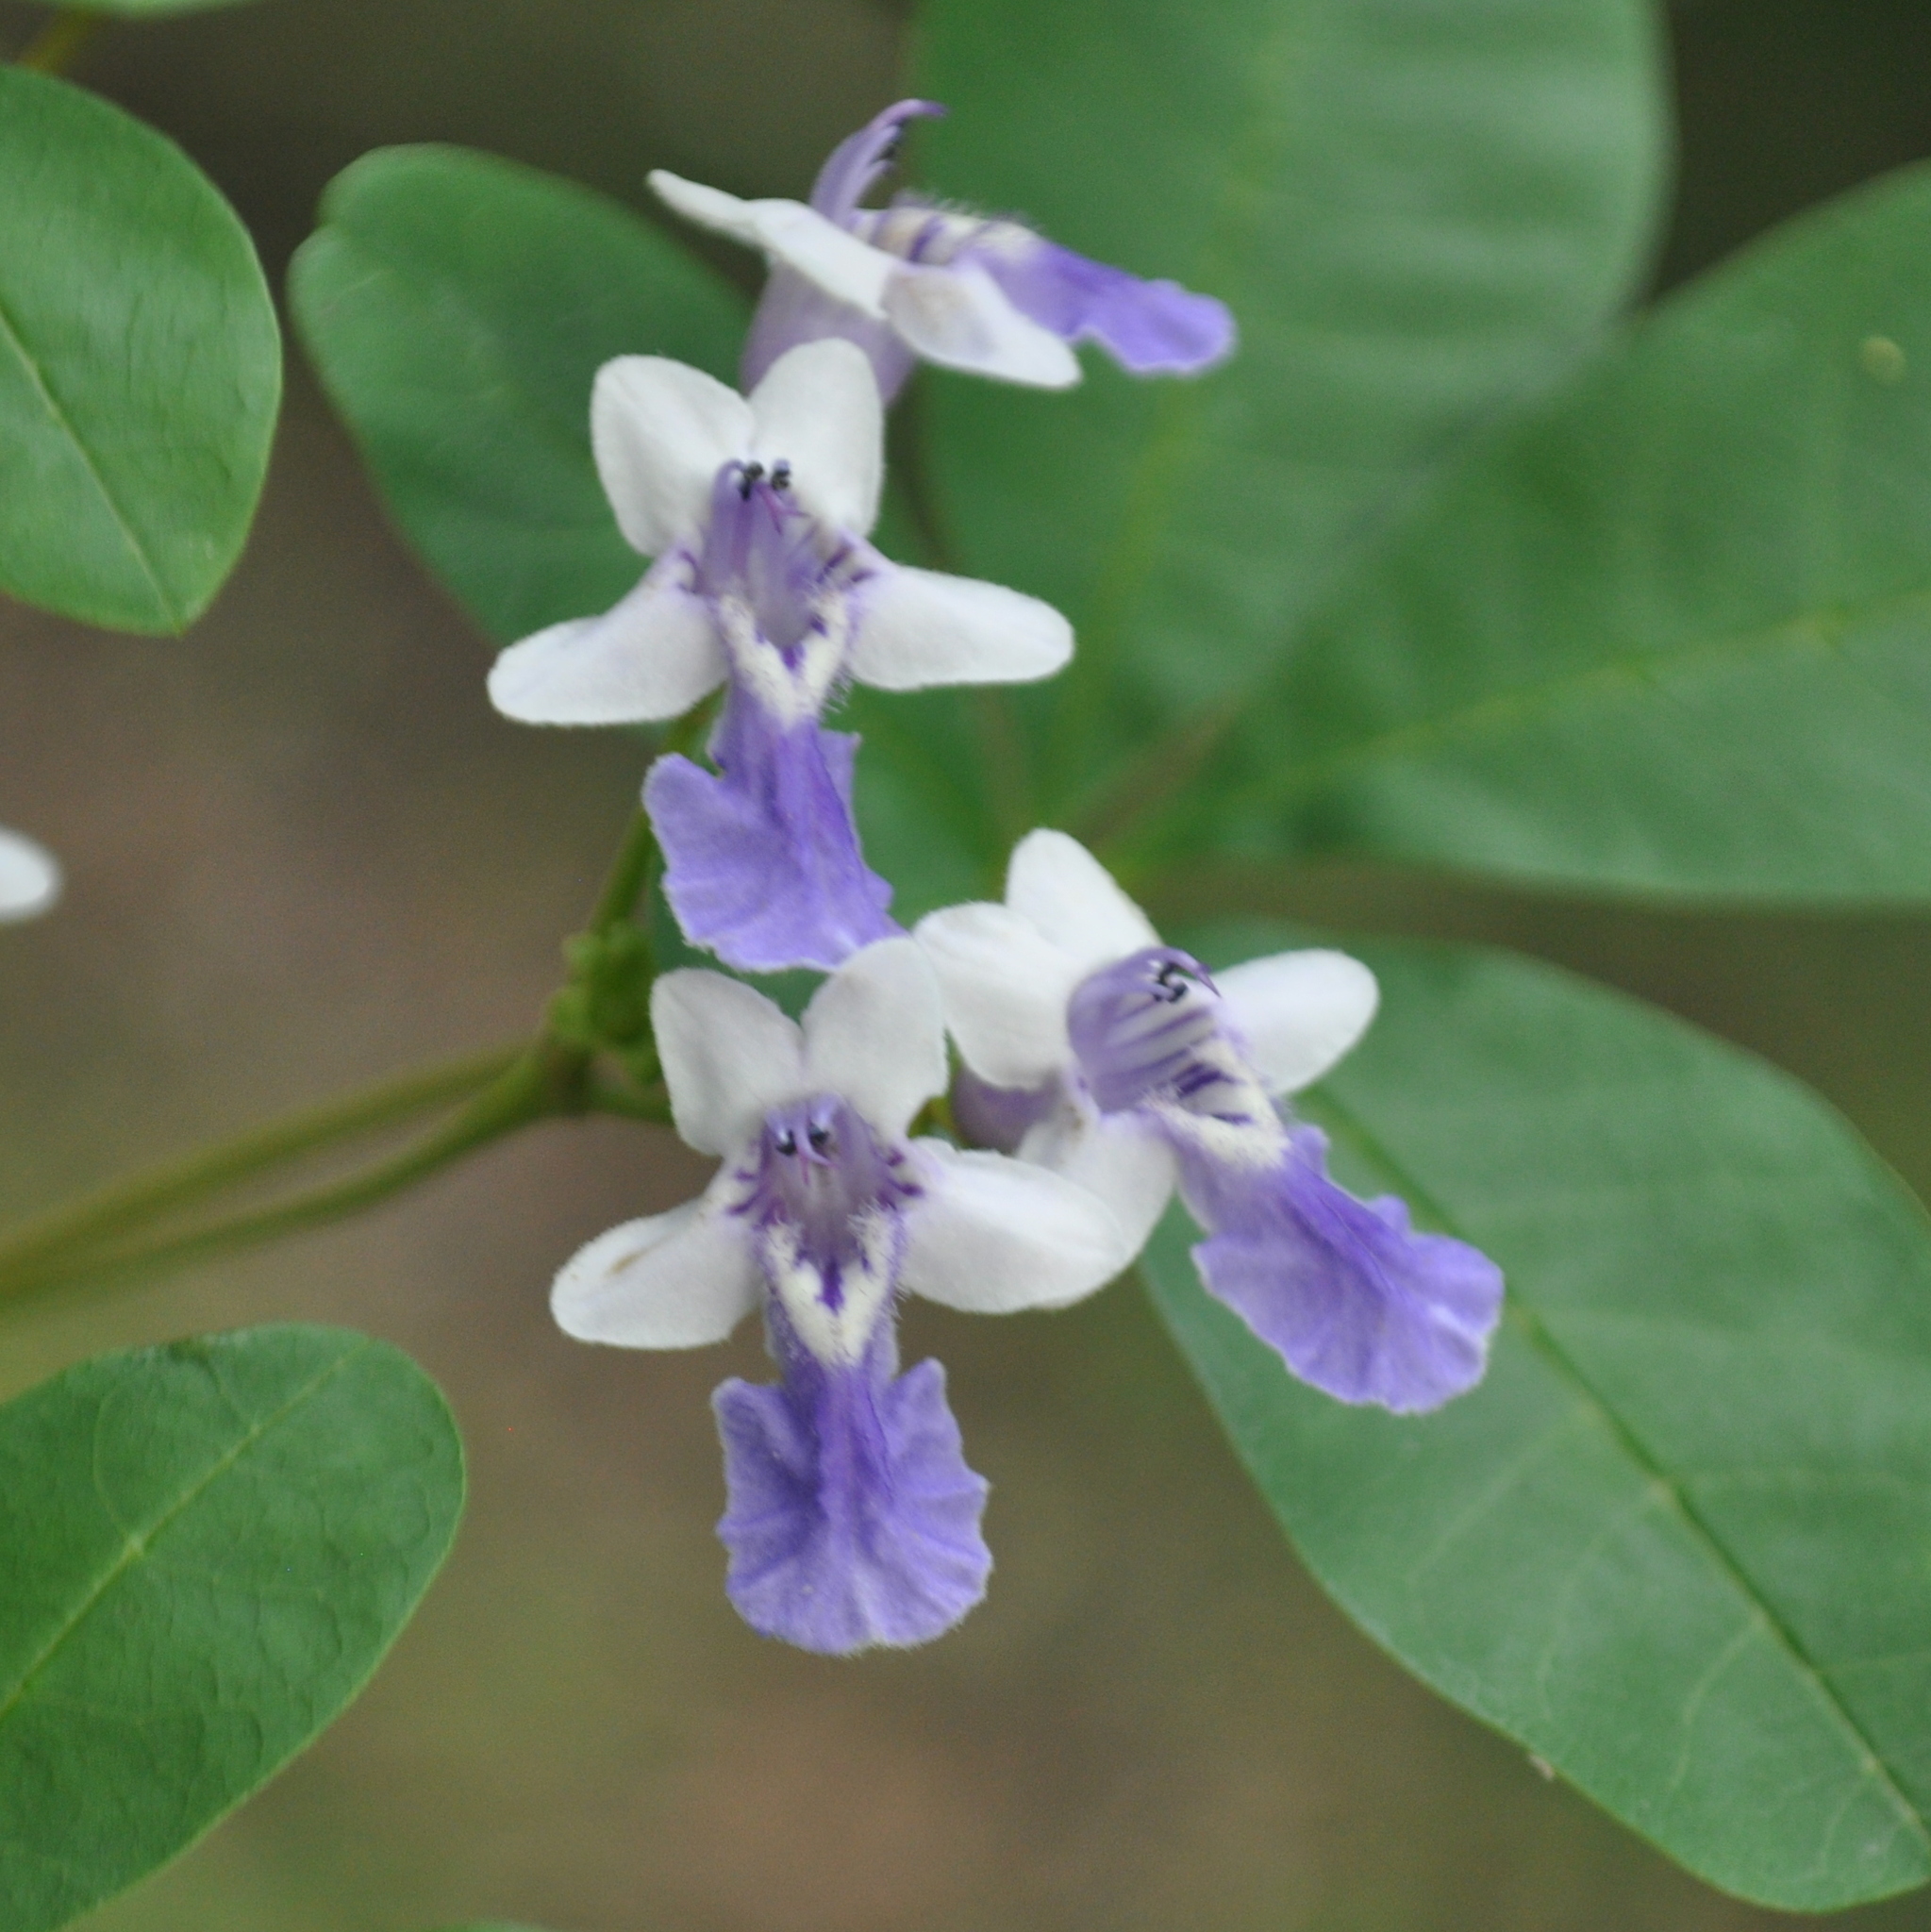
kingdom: Plantae
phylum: Tracheophyta
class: Magnoliopsida
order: Lamiales
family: Lamiaceae
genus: Vitex
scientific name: Vitex megapotamica
